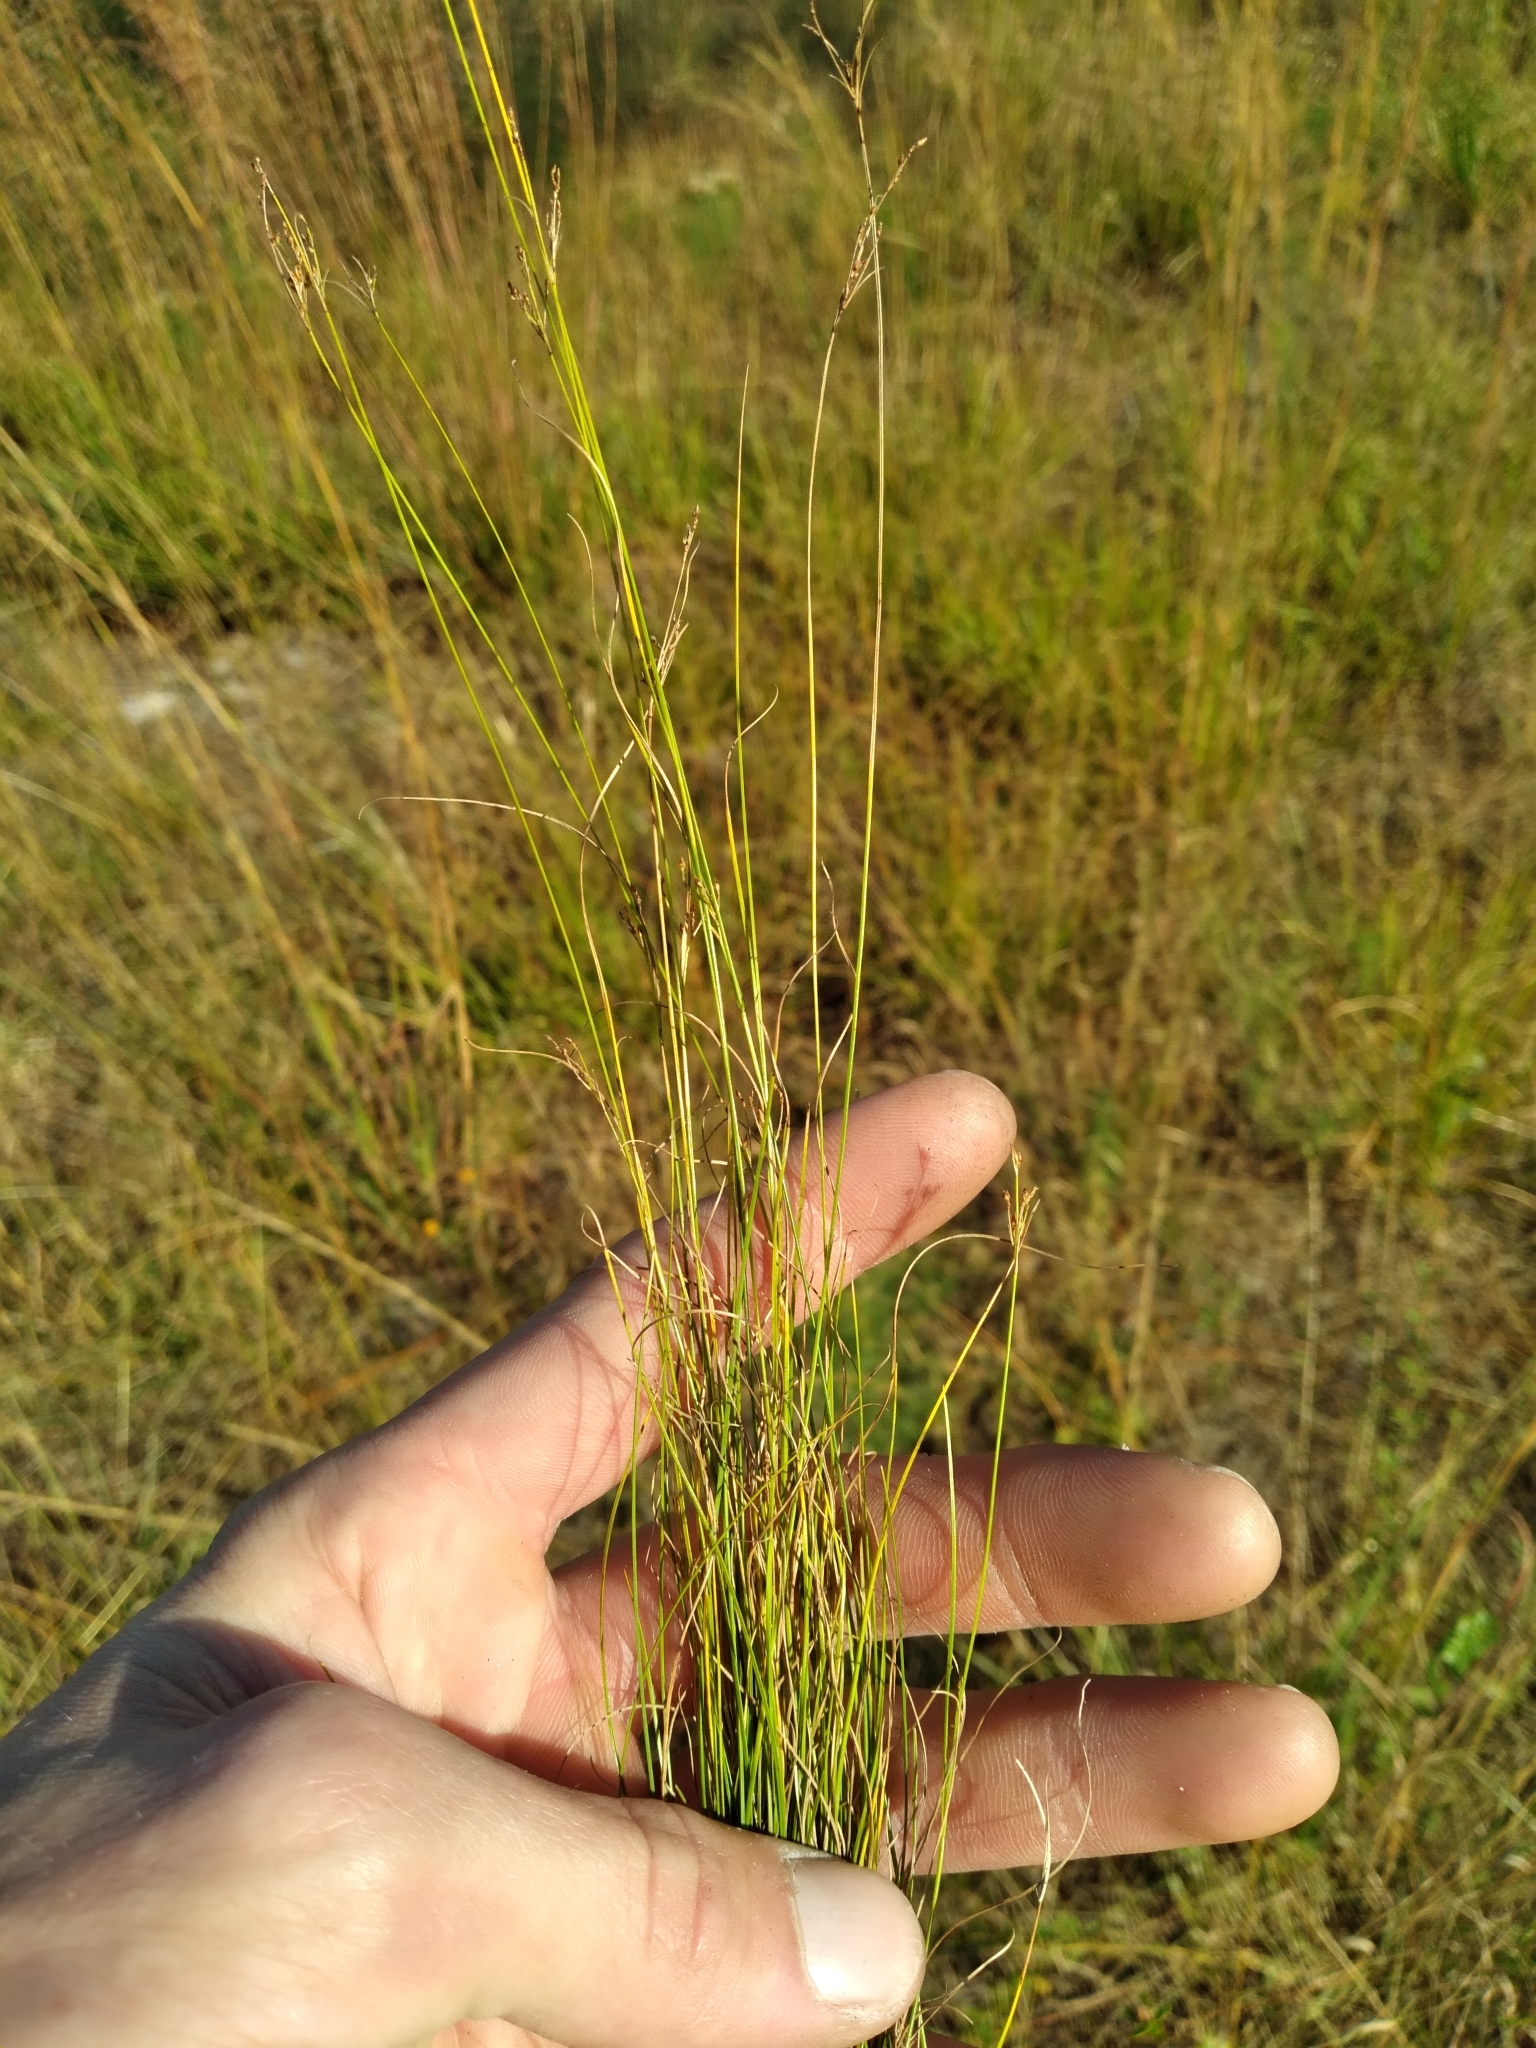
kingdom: Plantae
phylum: Tracheophyta
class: Liliopsida
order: Poales
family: Cyperaceae
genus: Rhynchospora
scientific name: Rhynchospora pusilla
